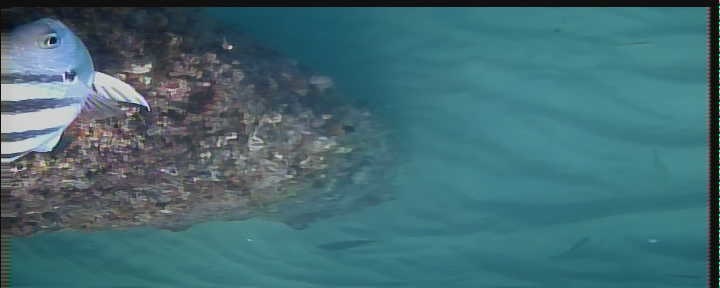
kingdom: Animalia
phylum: Chordata
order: Perciformes
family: Pomacentridae
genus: Abudefduf
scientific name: Abudefduf saxatilis
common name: Sergeant major
